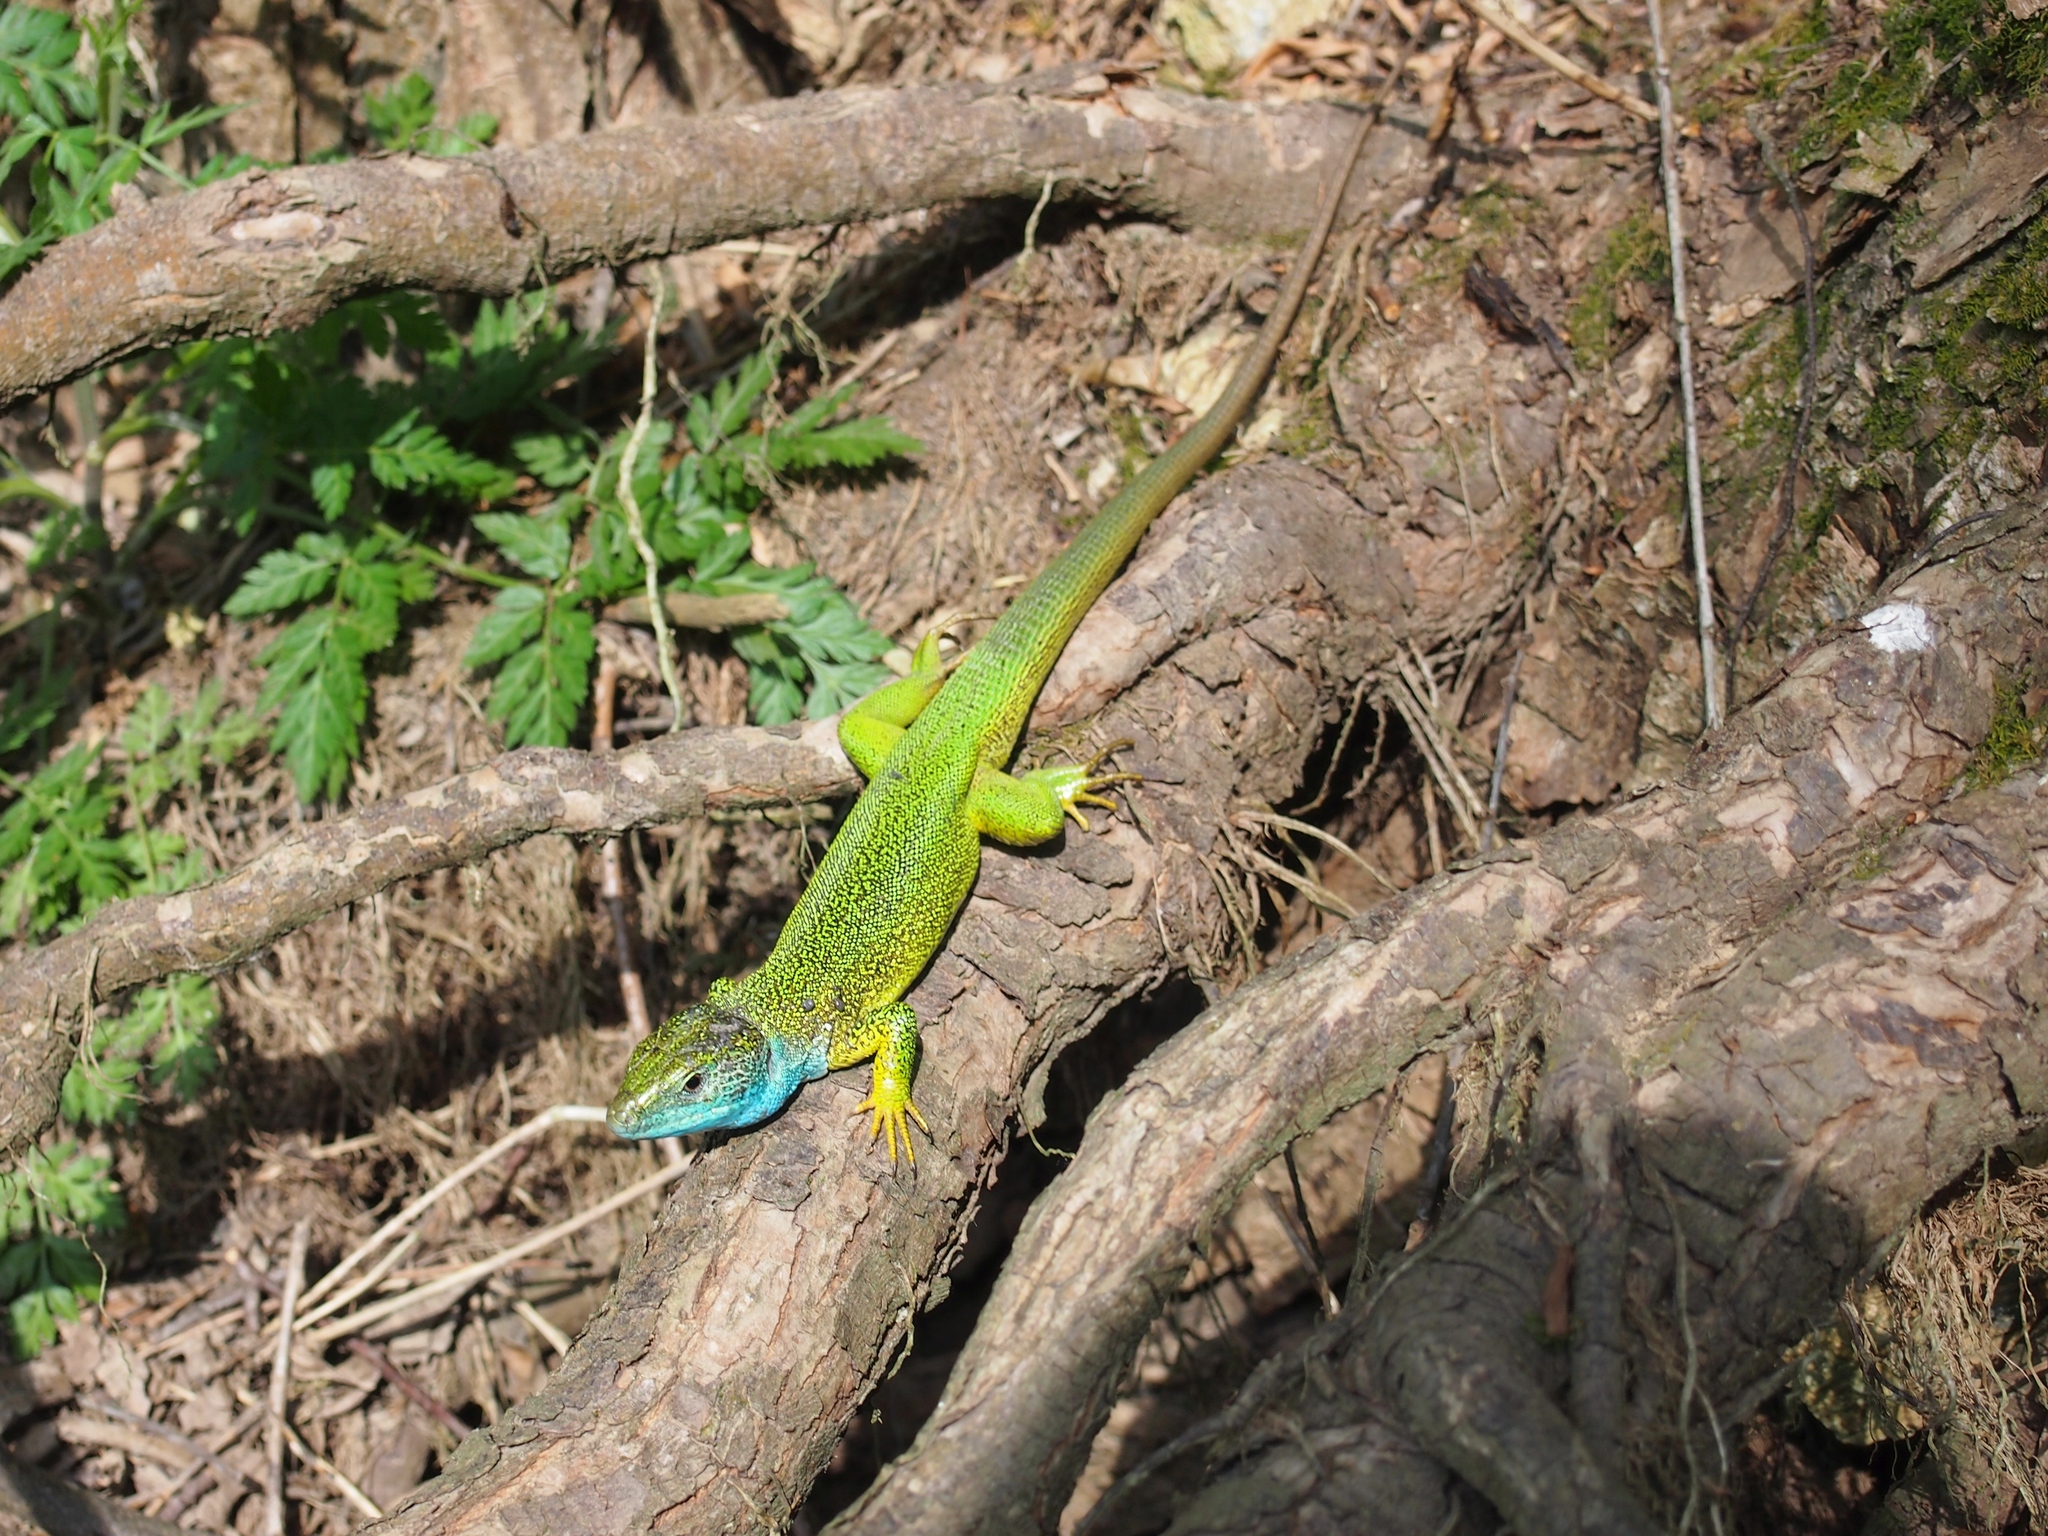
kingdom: Animalia
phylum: Chordata
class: Squamata
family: Lacertidae
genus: Lacerta
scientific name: Lacerta viridis
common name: European green lizard
